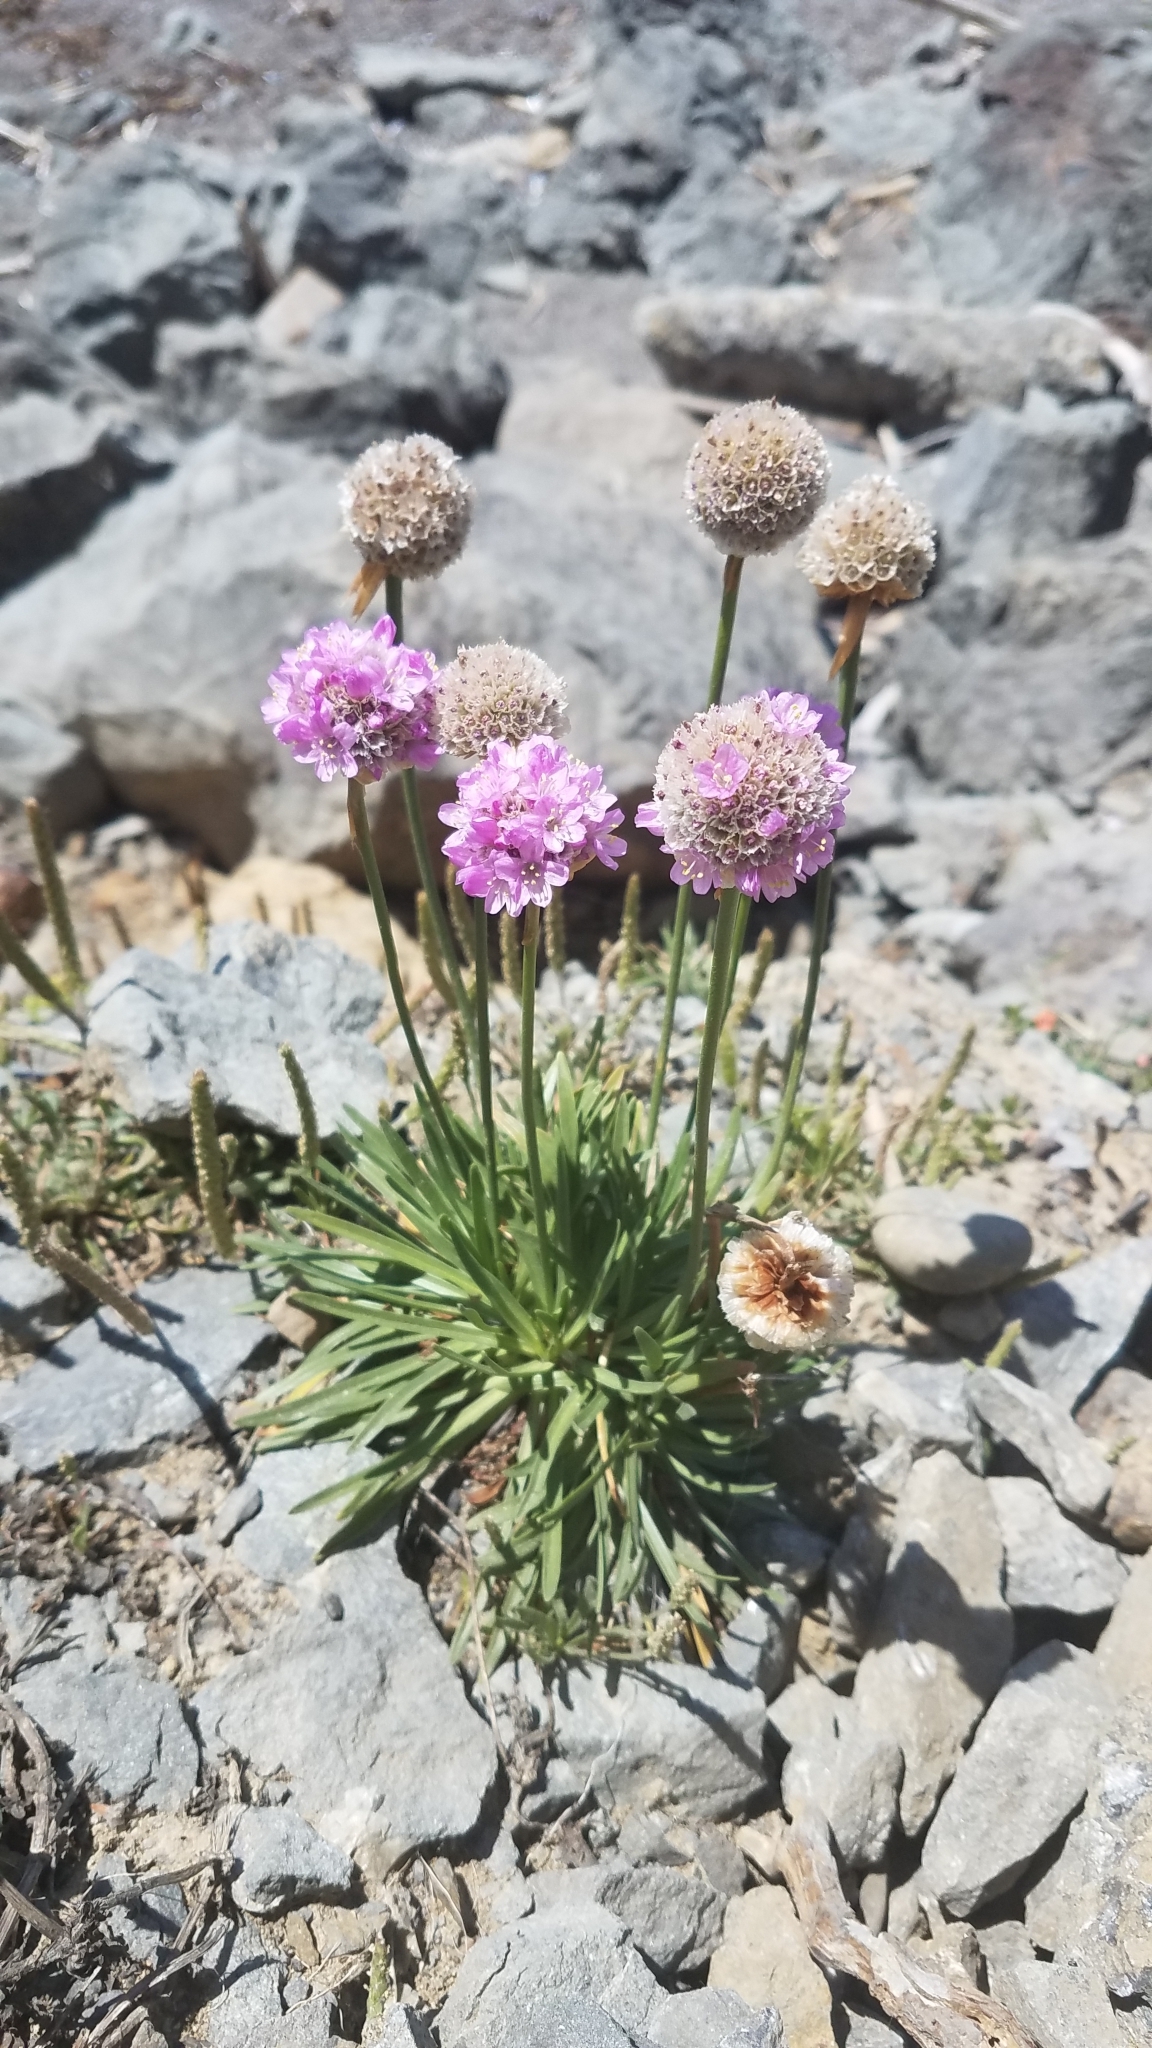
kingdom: Plantae
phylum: Tracheophyta
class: Magnoliopsida
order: Caryophyllales
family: Plumbaginaceae
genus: Armeria
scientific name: Armeria maritima
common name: Thrift
